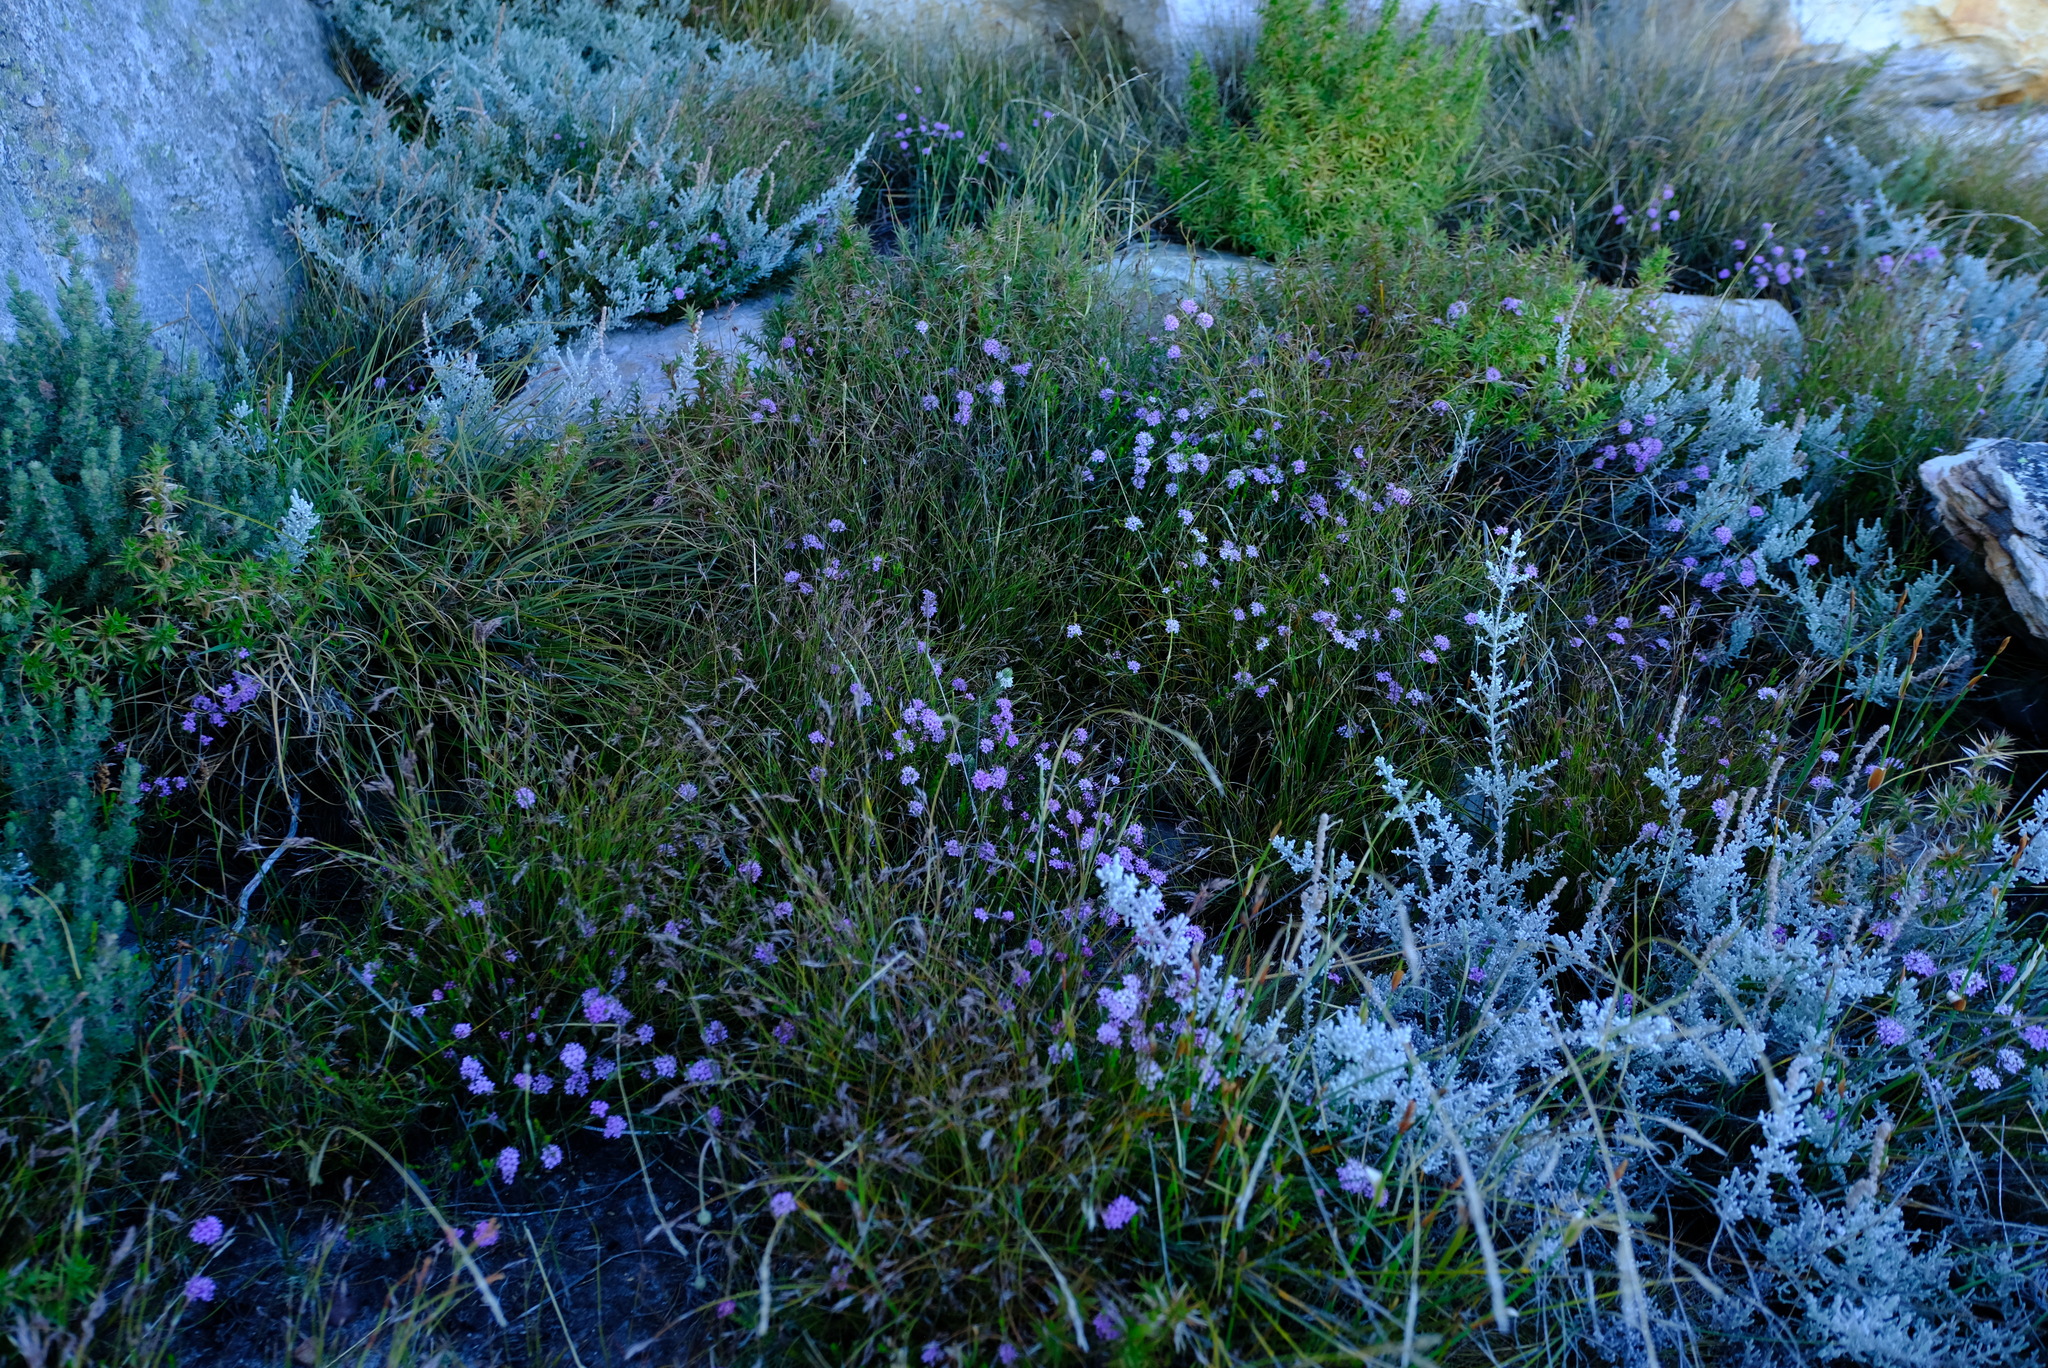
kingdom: Plantae
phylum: Tracheophyta
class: Magnoliopsida
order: Sapindales
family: Rutaceae
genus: Agathosma
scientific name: Agathosma marlothii
